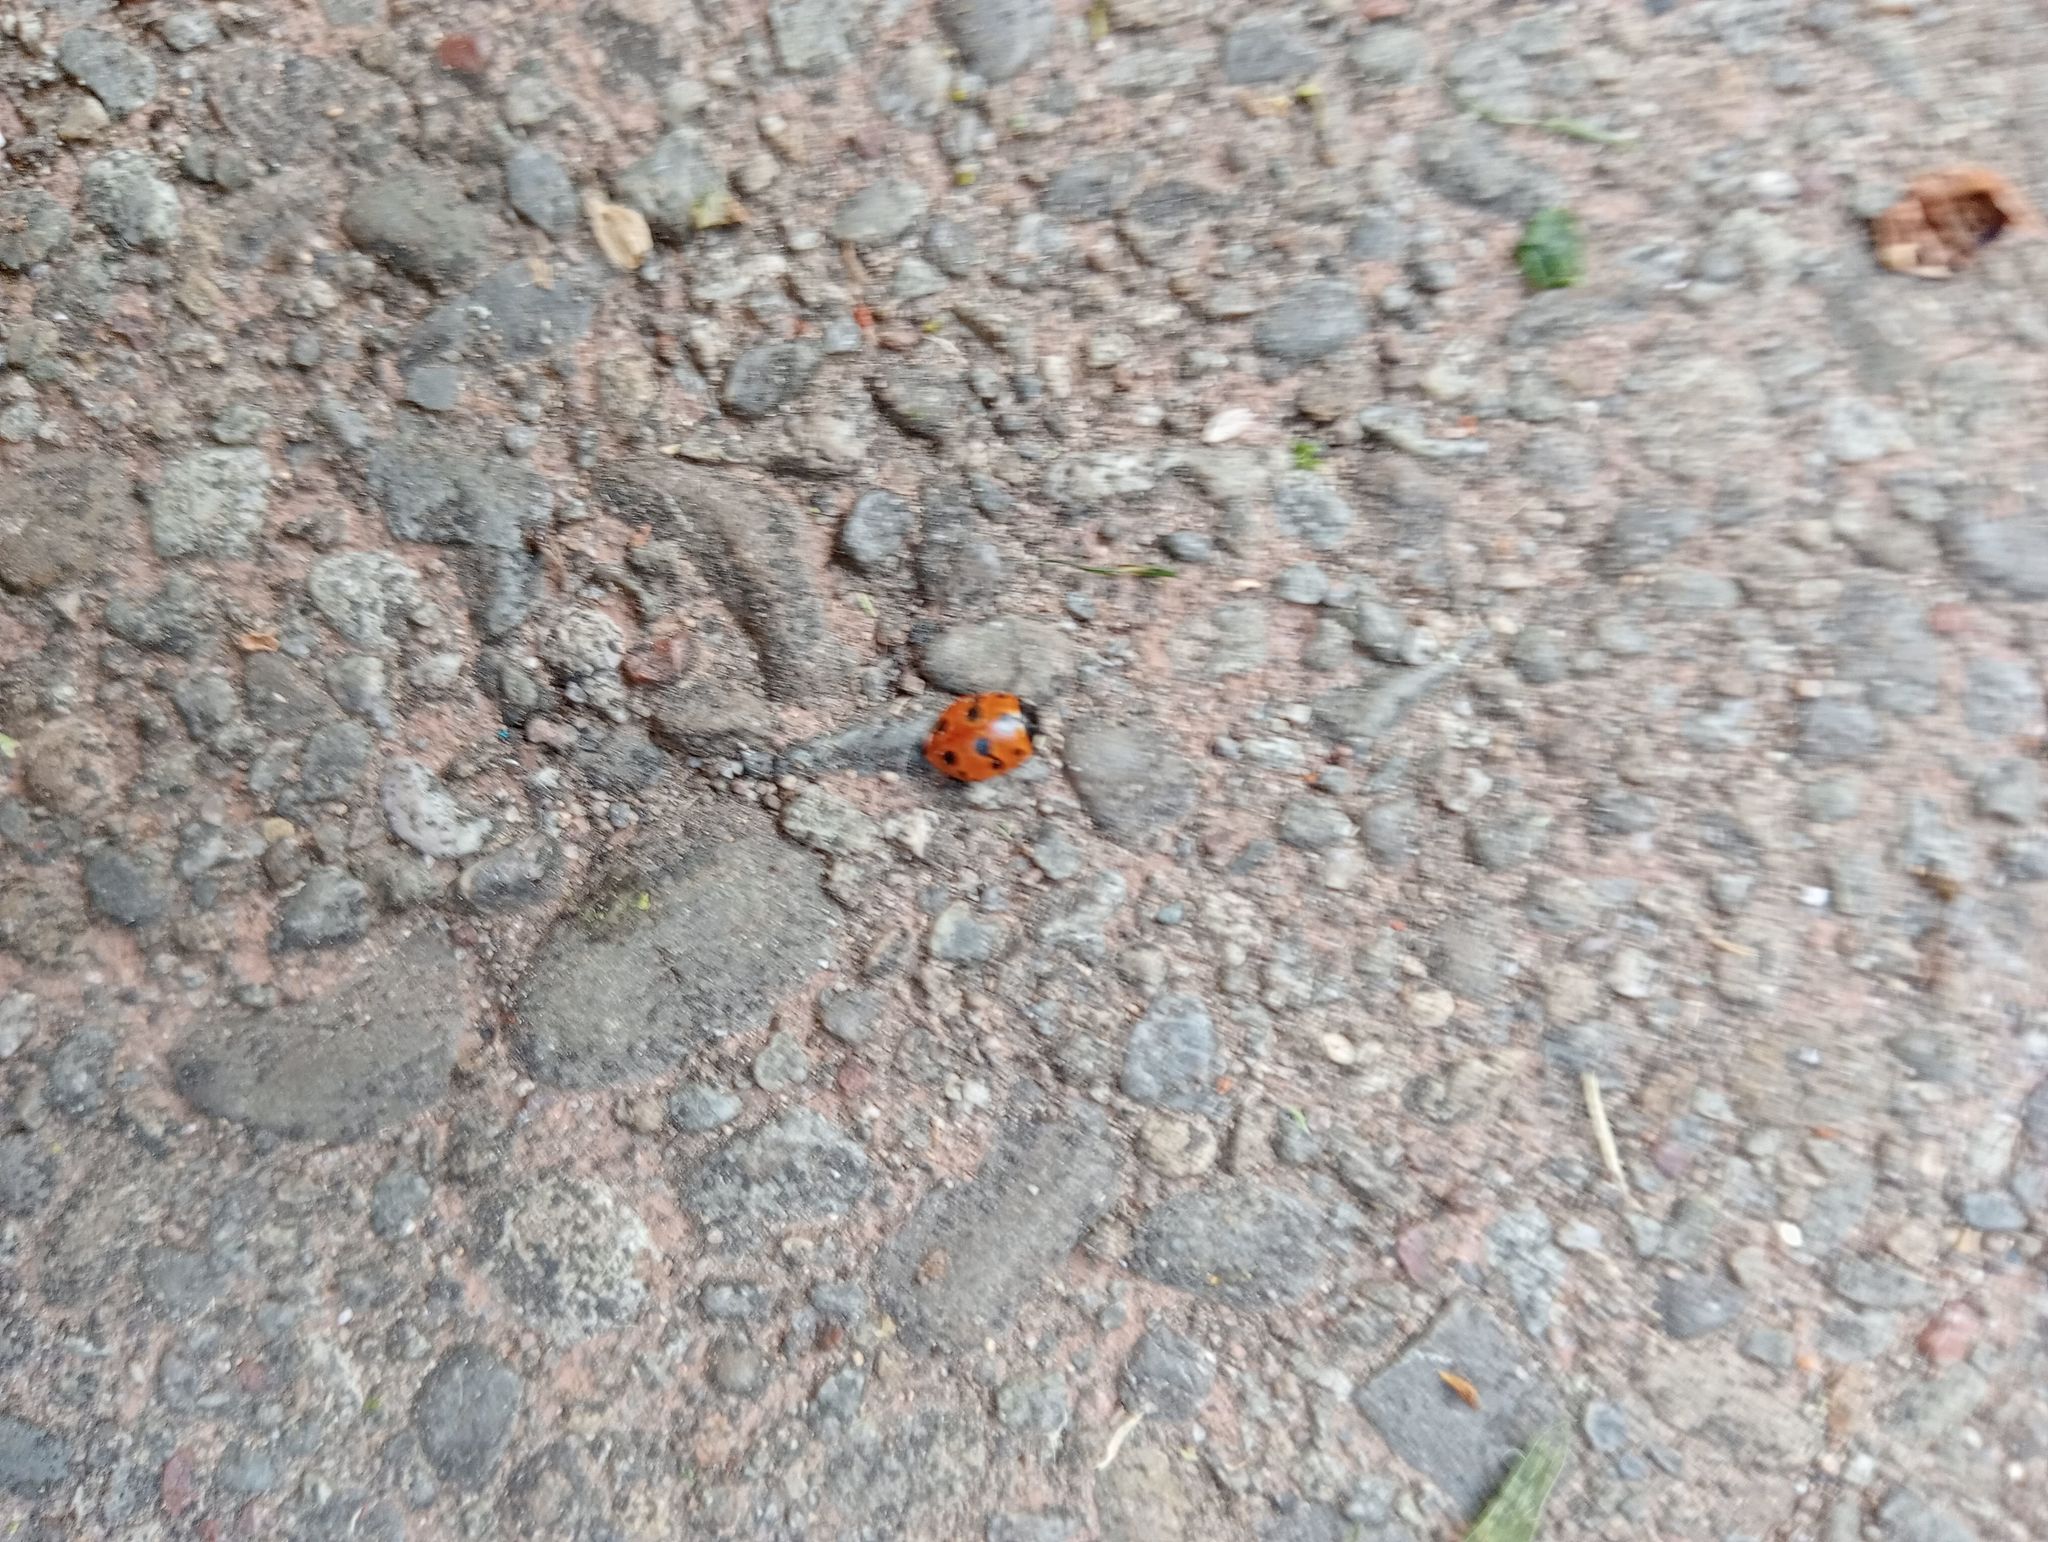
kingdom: Animalia
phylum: Arthropoda
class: Insecta
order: Coleoptera
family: Coccinellidae
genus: Coccinella
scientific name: Coccinella undecimpunctata
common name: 11-spot ladybird
